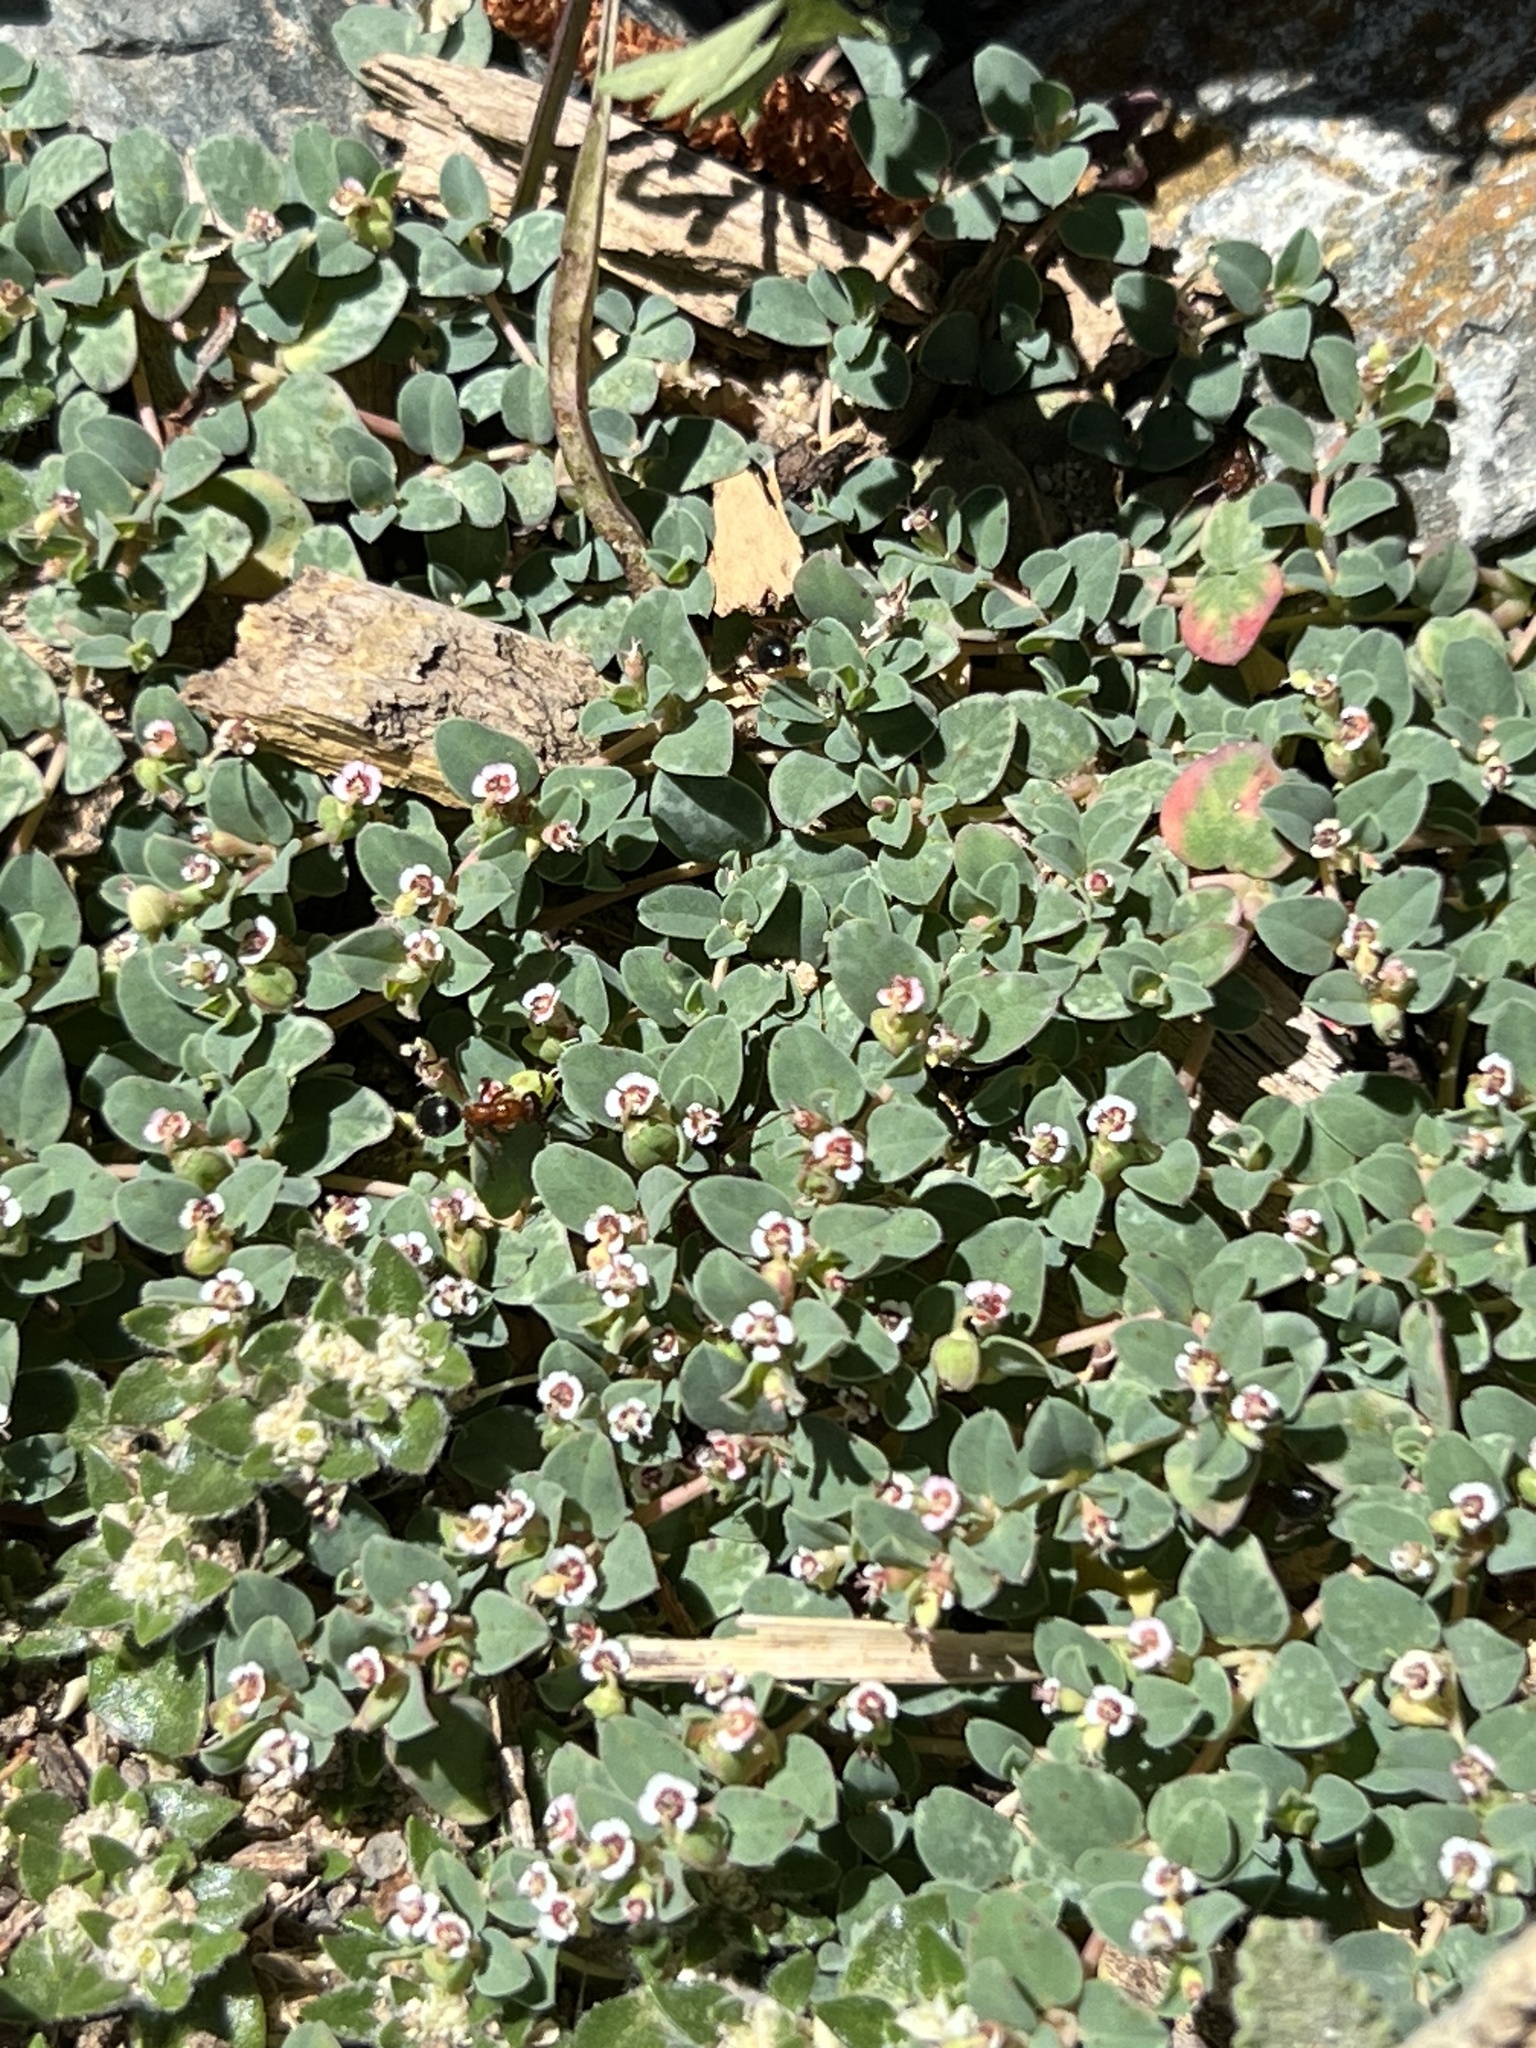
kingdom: Plantae
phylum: Tracheophyta
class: Magnoliopsida
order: Malpighiales
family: Euphorbiaceae
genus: Euphorbia
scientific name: Euphorbia albomarginata
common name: Whitemargin sandmat
